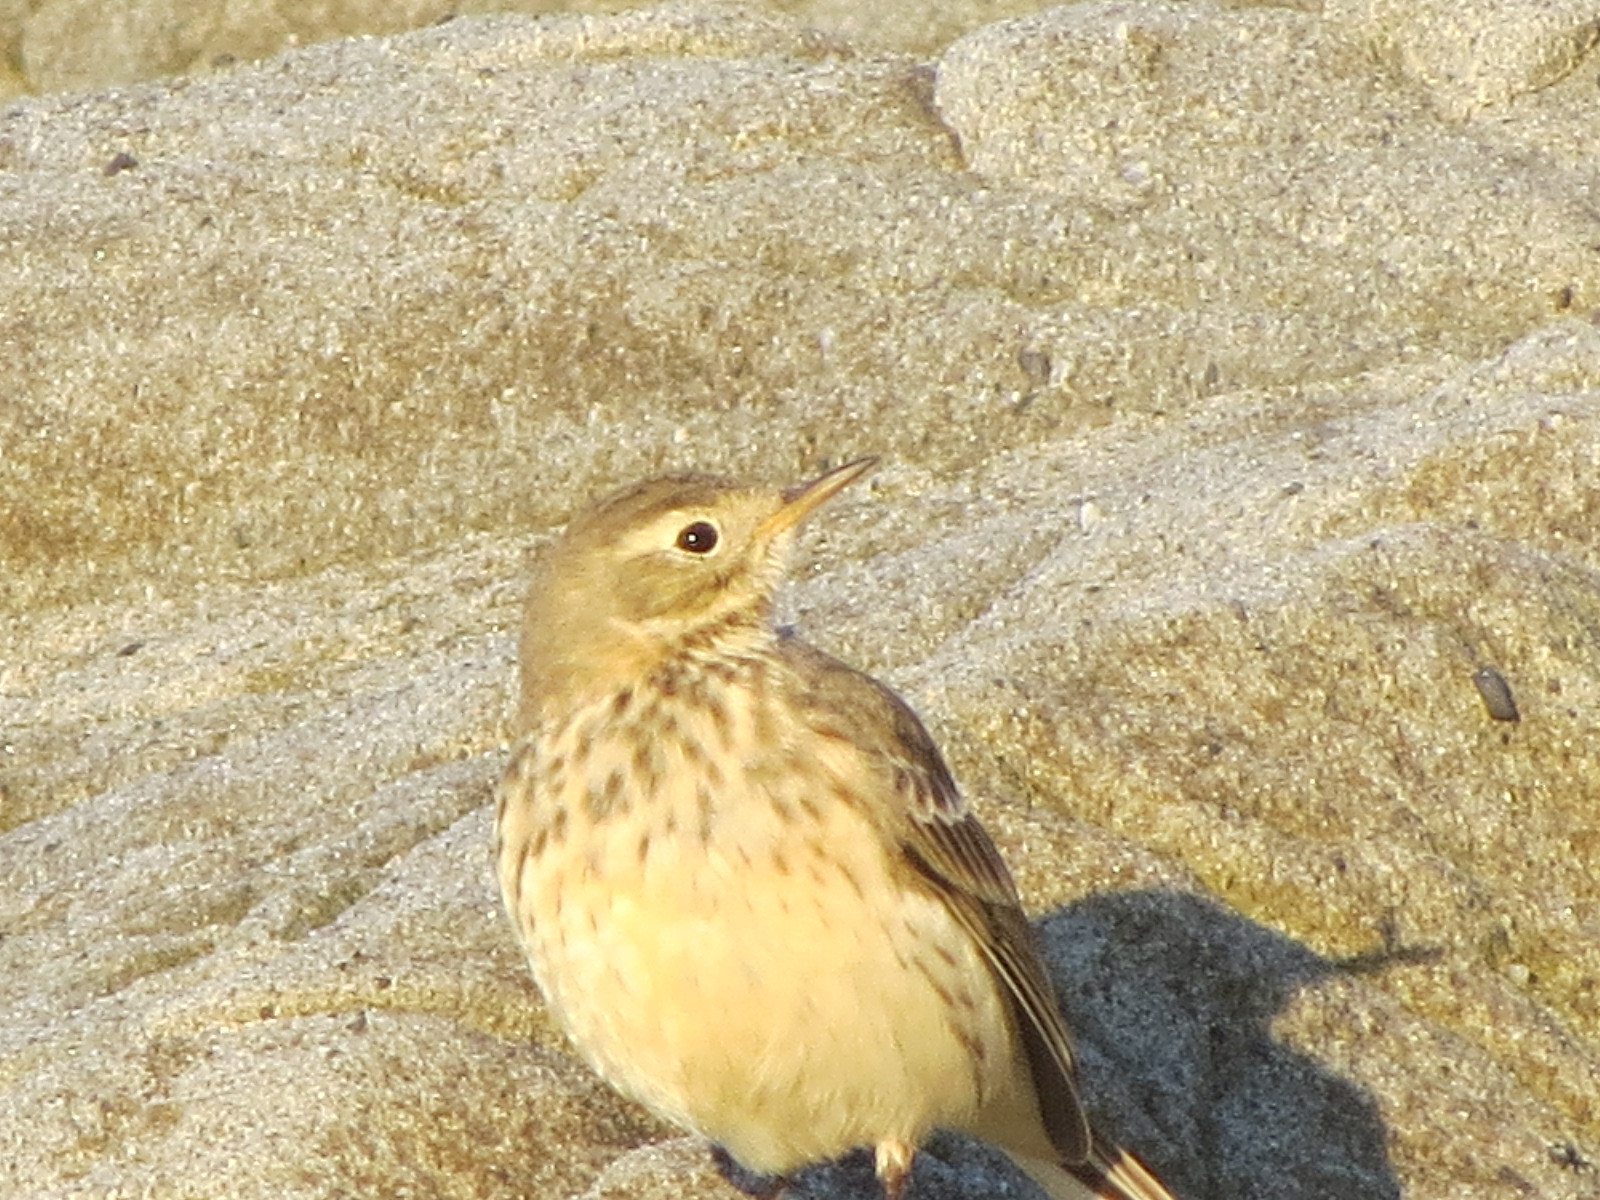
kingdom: Animalia
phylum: Chordata
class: Aves
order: Passeriformes
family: Motacillidae
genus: Anthus
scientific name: Anthus rubescens
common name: Buff-bellied pipit
